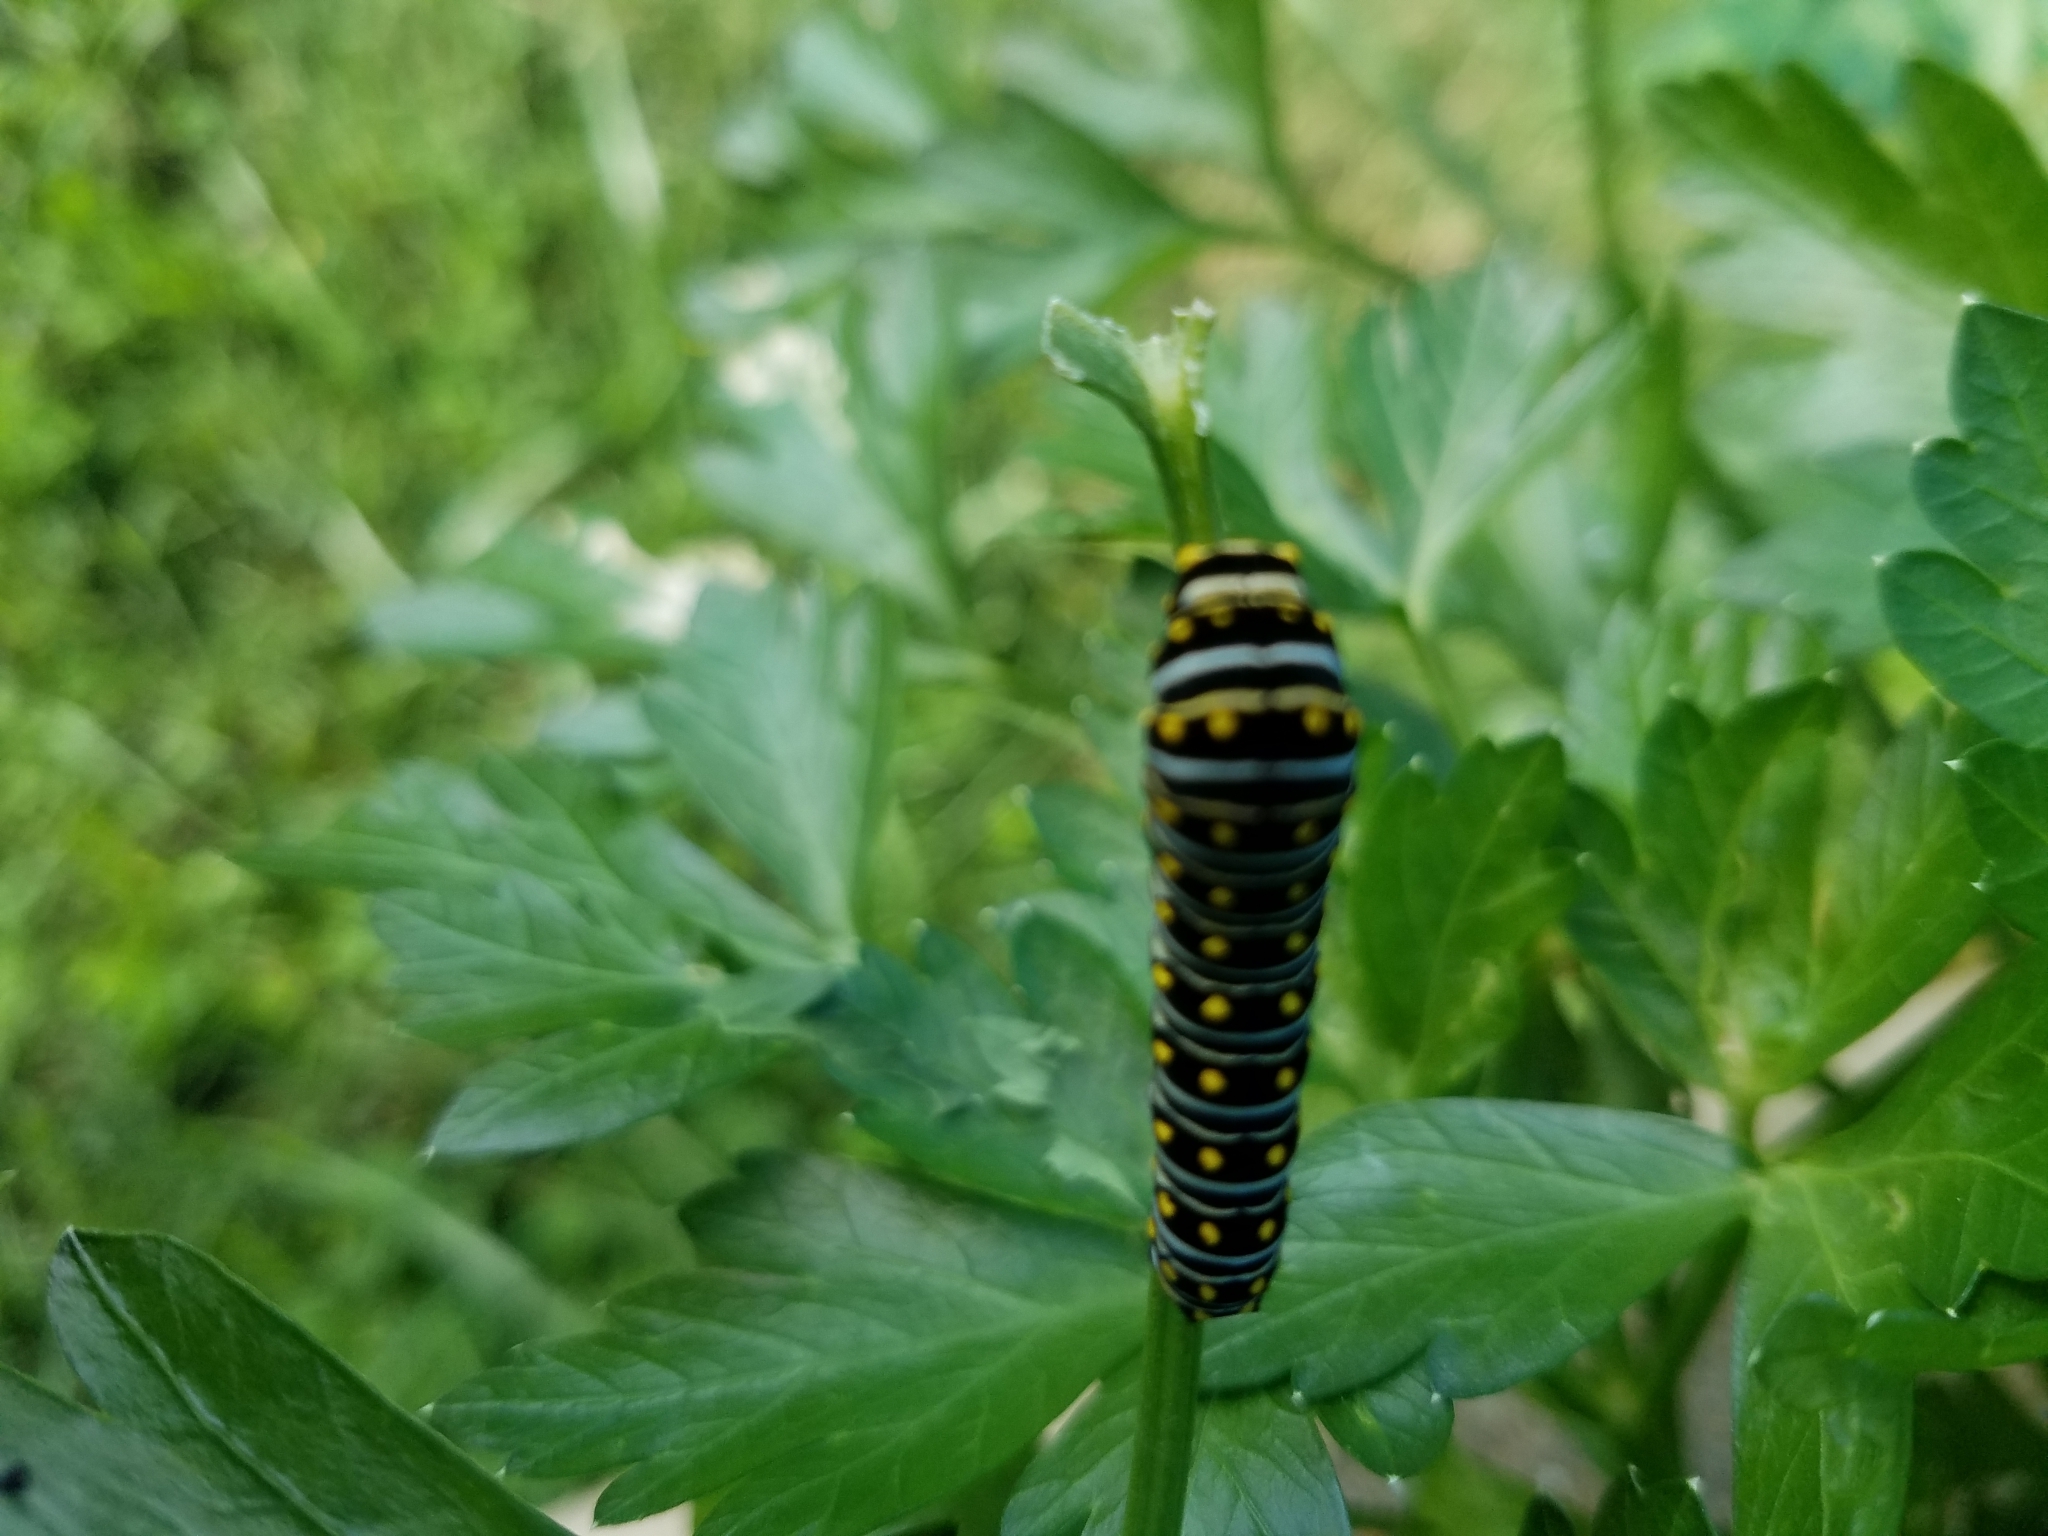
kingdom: Animalia
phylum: Arthropoda
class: Insecta
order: Lepidoptera
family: Papilionidae
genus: Papilio
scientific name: Papilio polyxenes
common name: Black swallowtail
